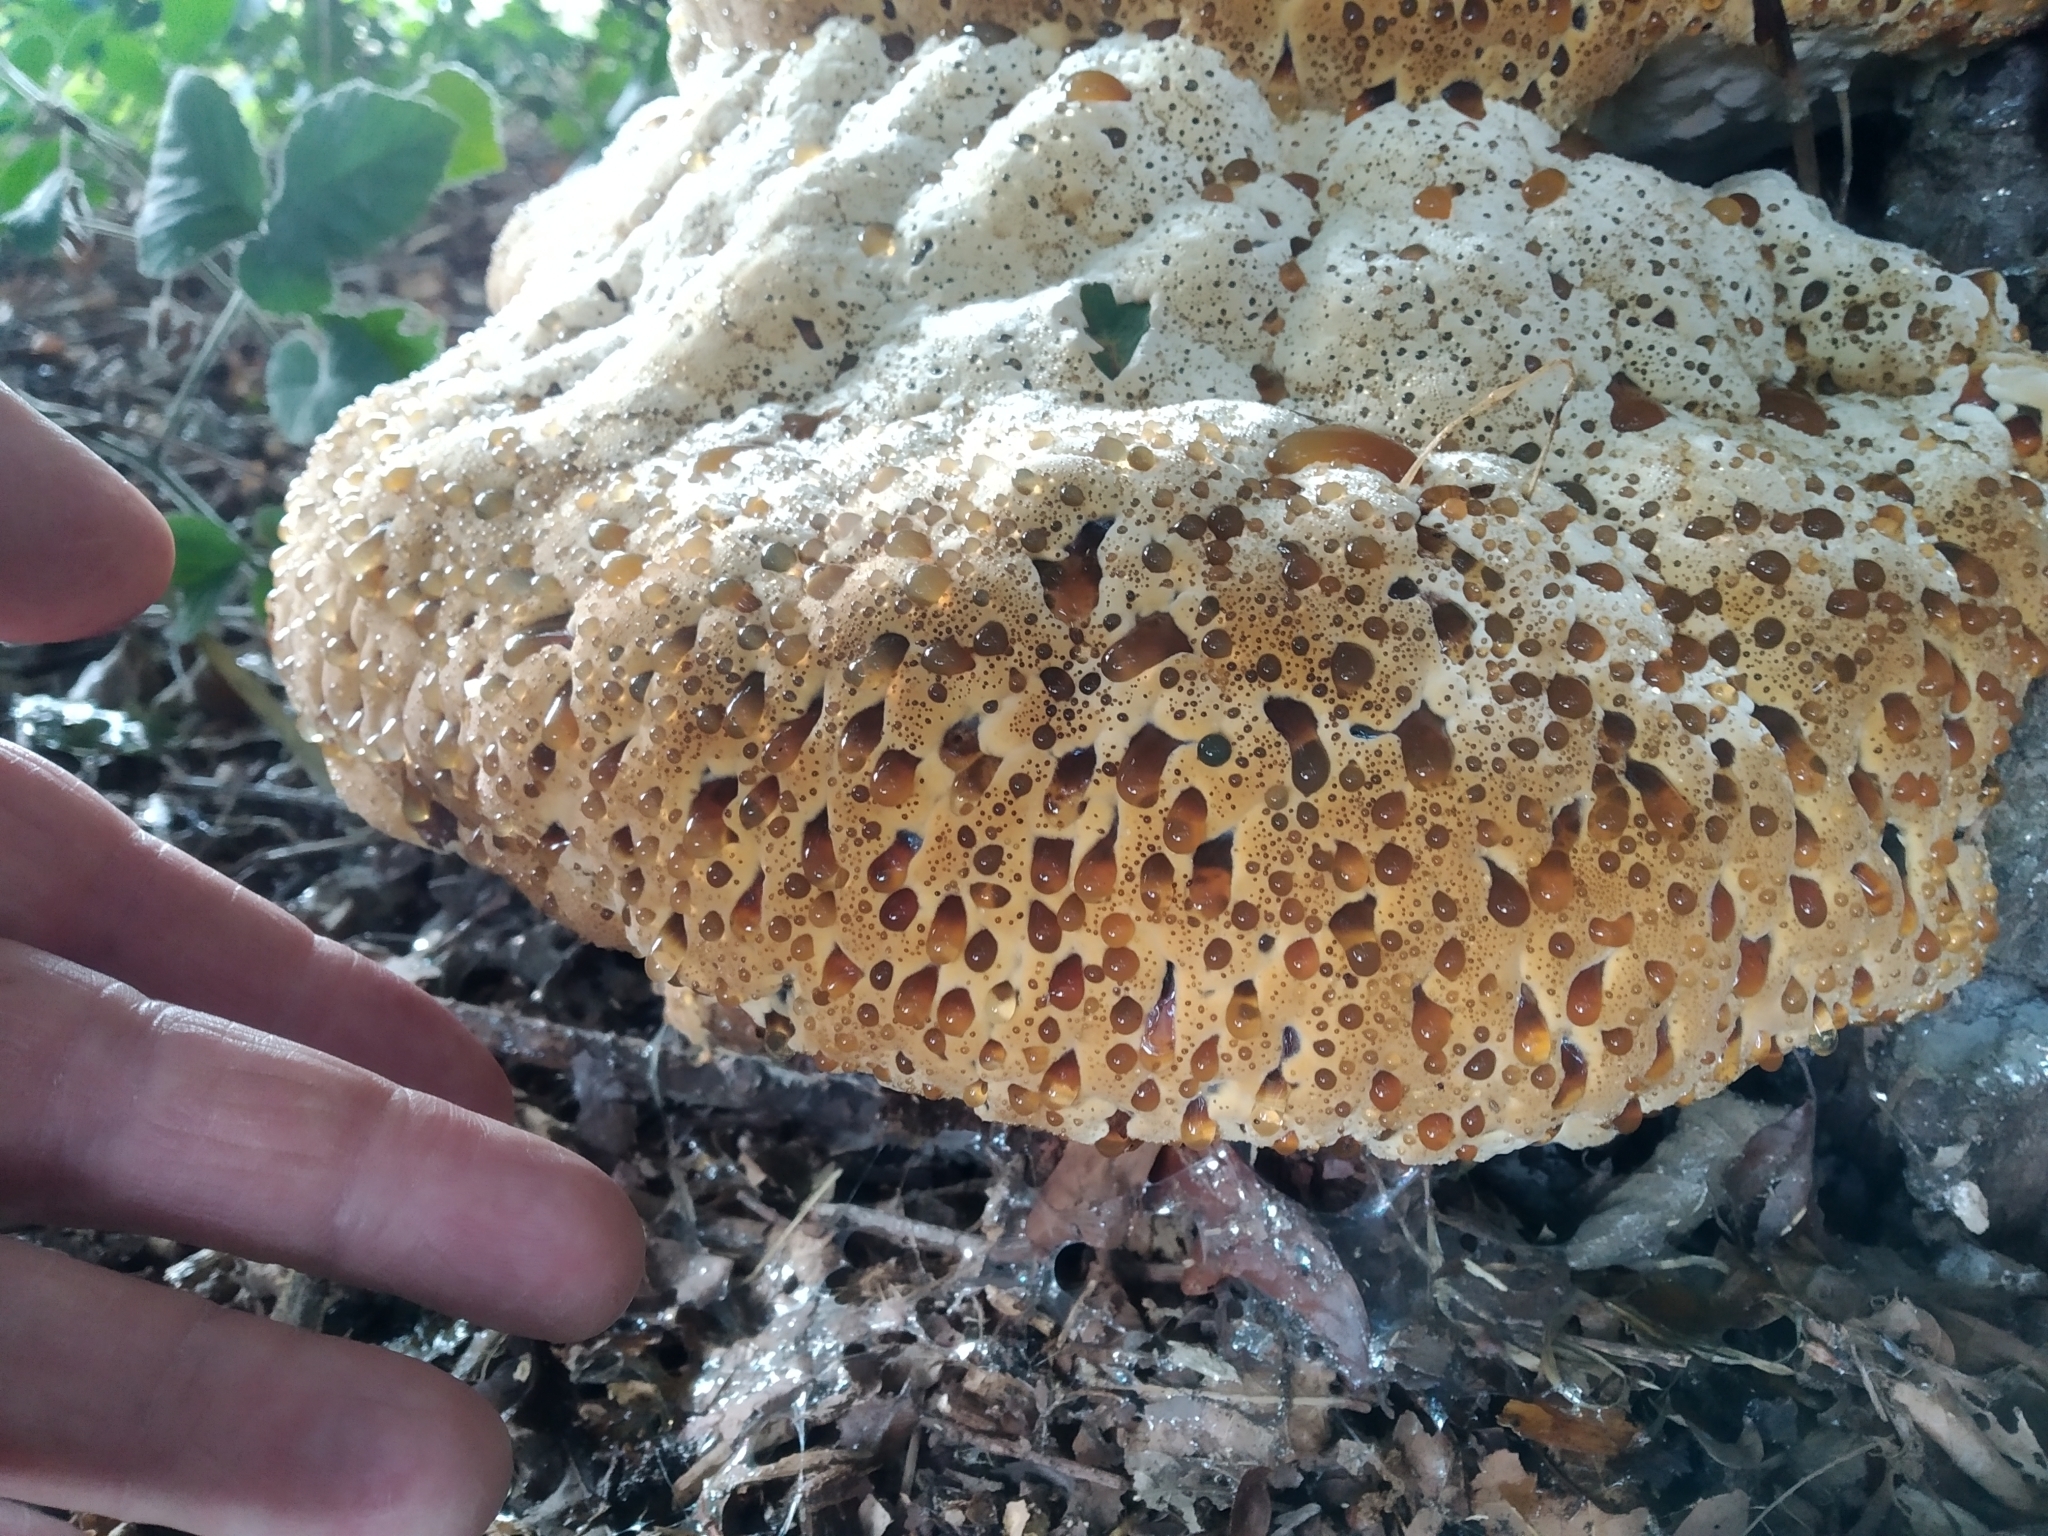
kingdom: Fungi
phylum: Basidiomycota
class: Agaricomycetes
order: Hymenochaetales
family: Hymenochaetaceae
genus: Pseudoinonotus
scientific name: Pseudoinonotus dryadeus
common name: Oak bracket
